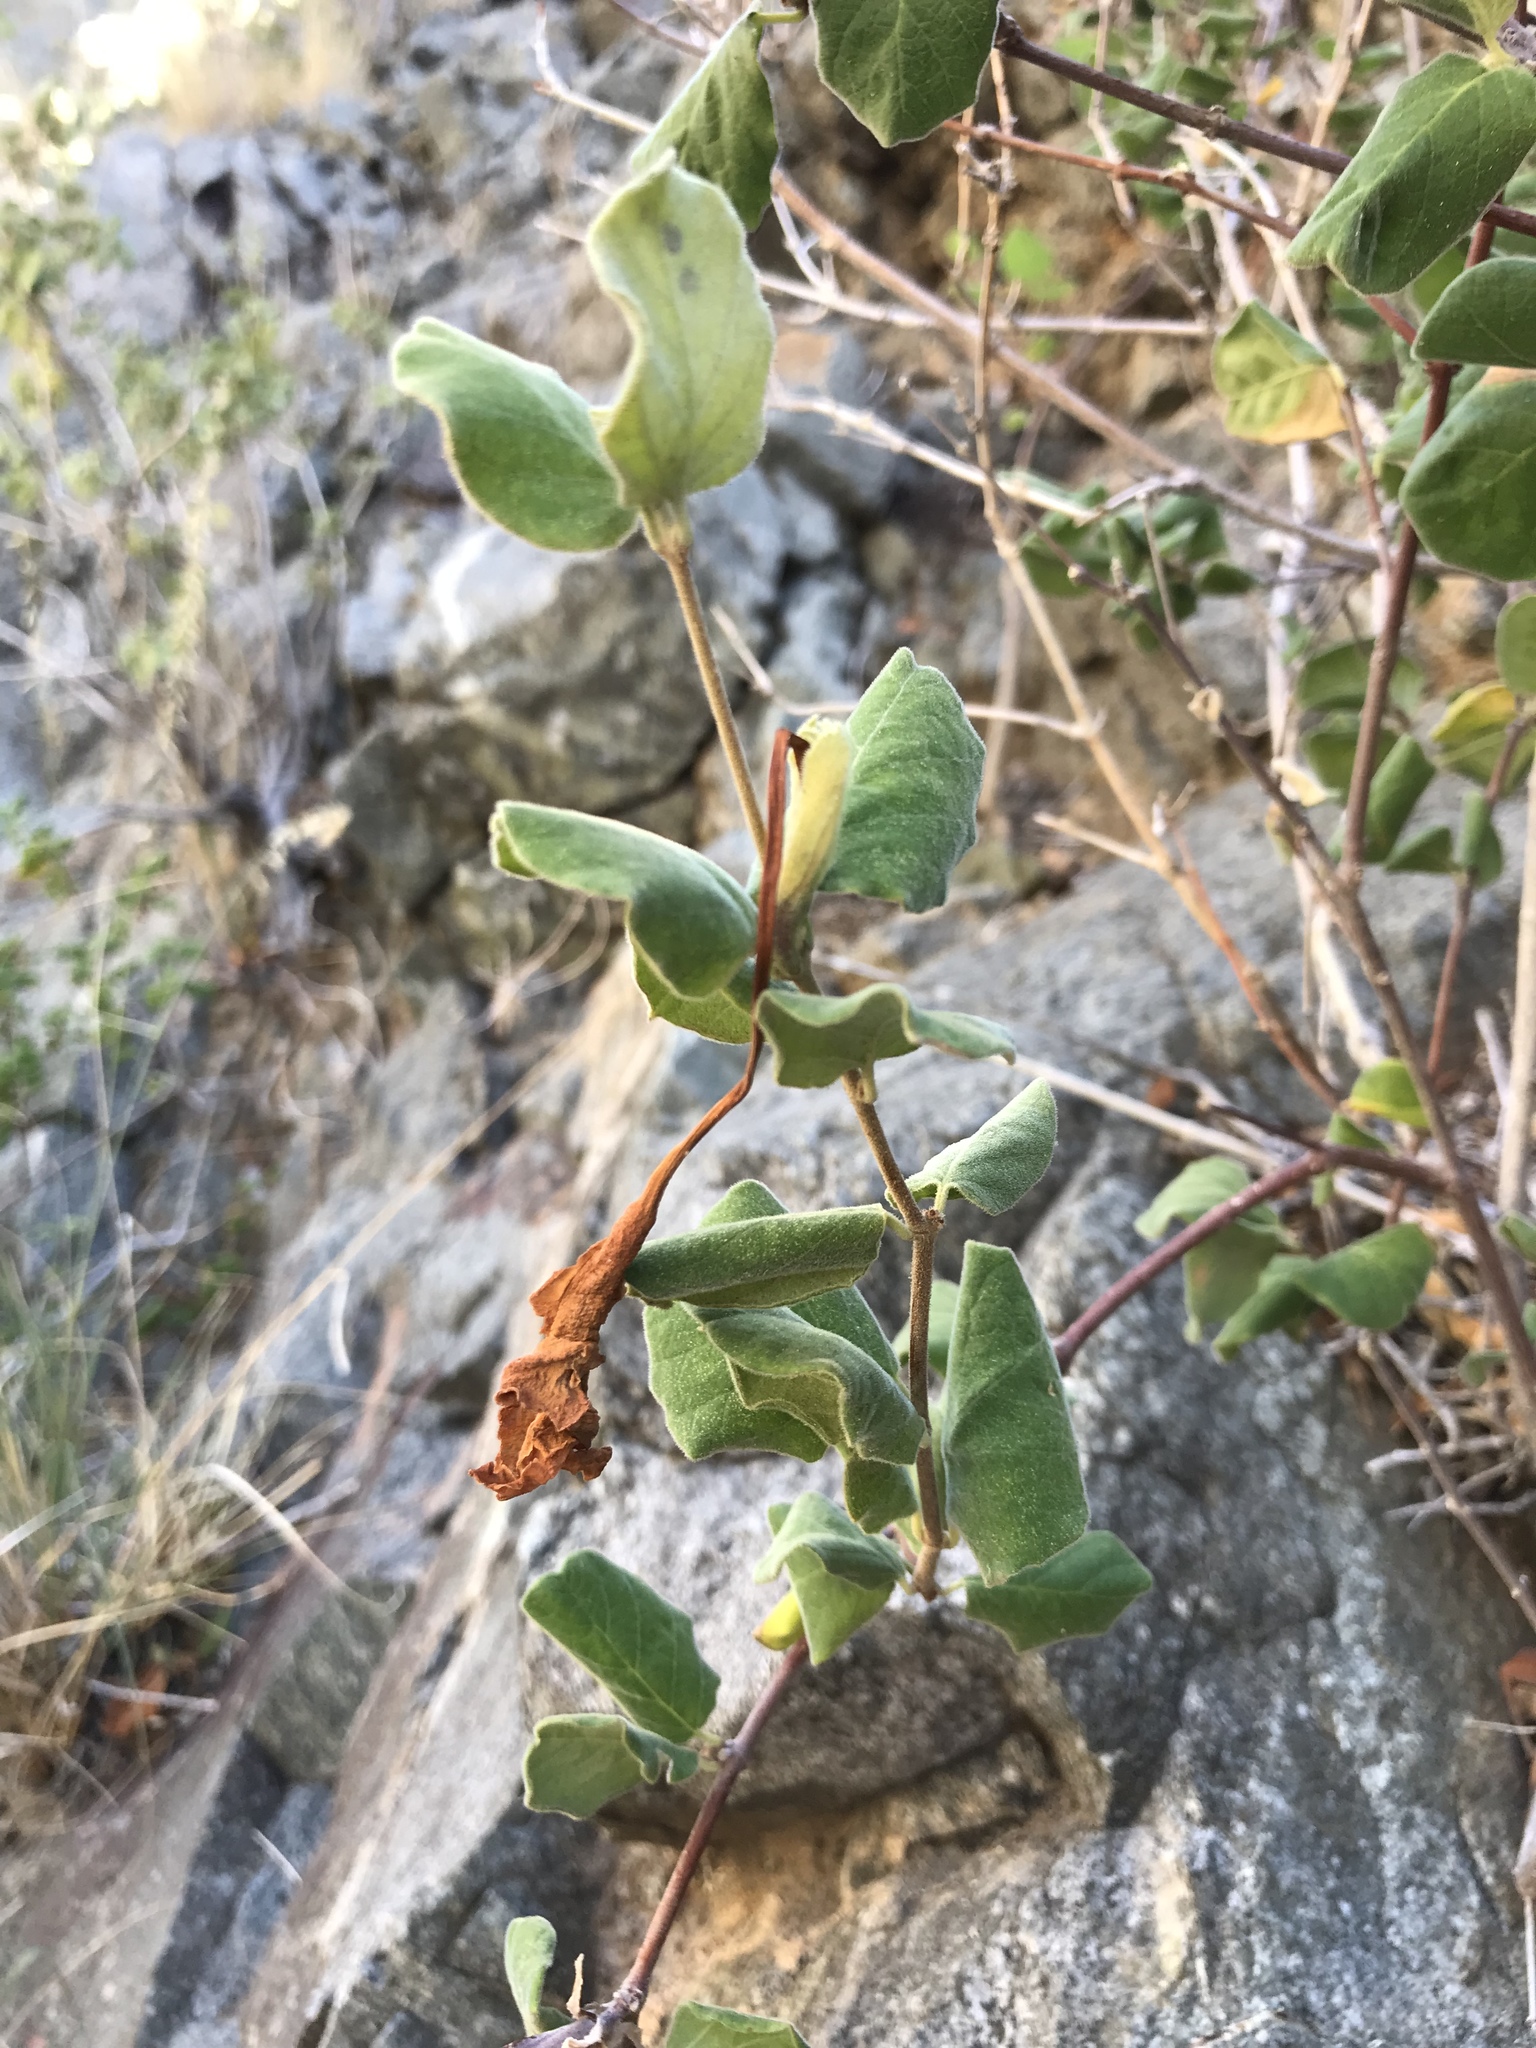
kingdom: Plantae
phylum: Tracheophyta
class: Magnoliopsida
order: Gentianales
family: Apocynaceae
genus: Mandevilla
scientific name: Mandevilla hesperia
